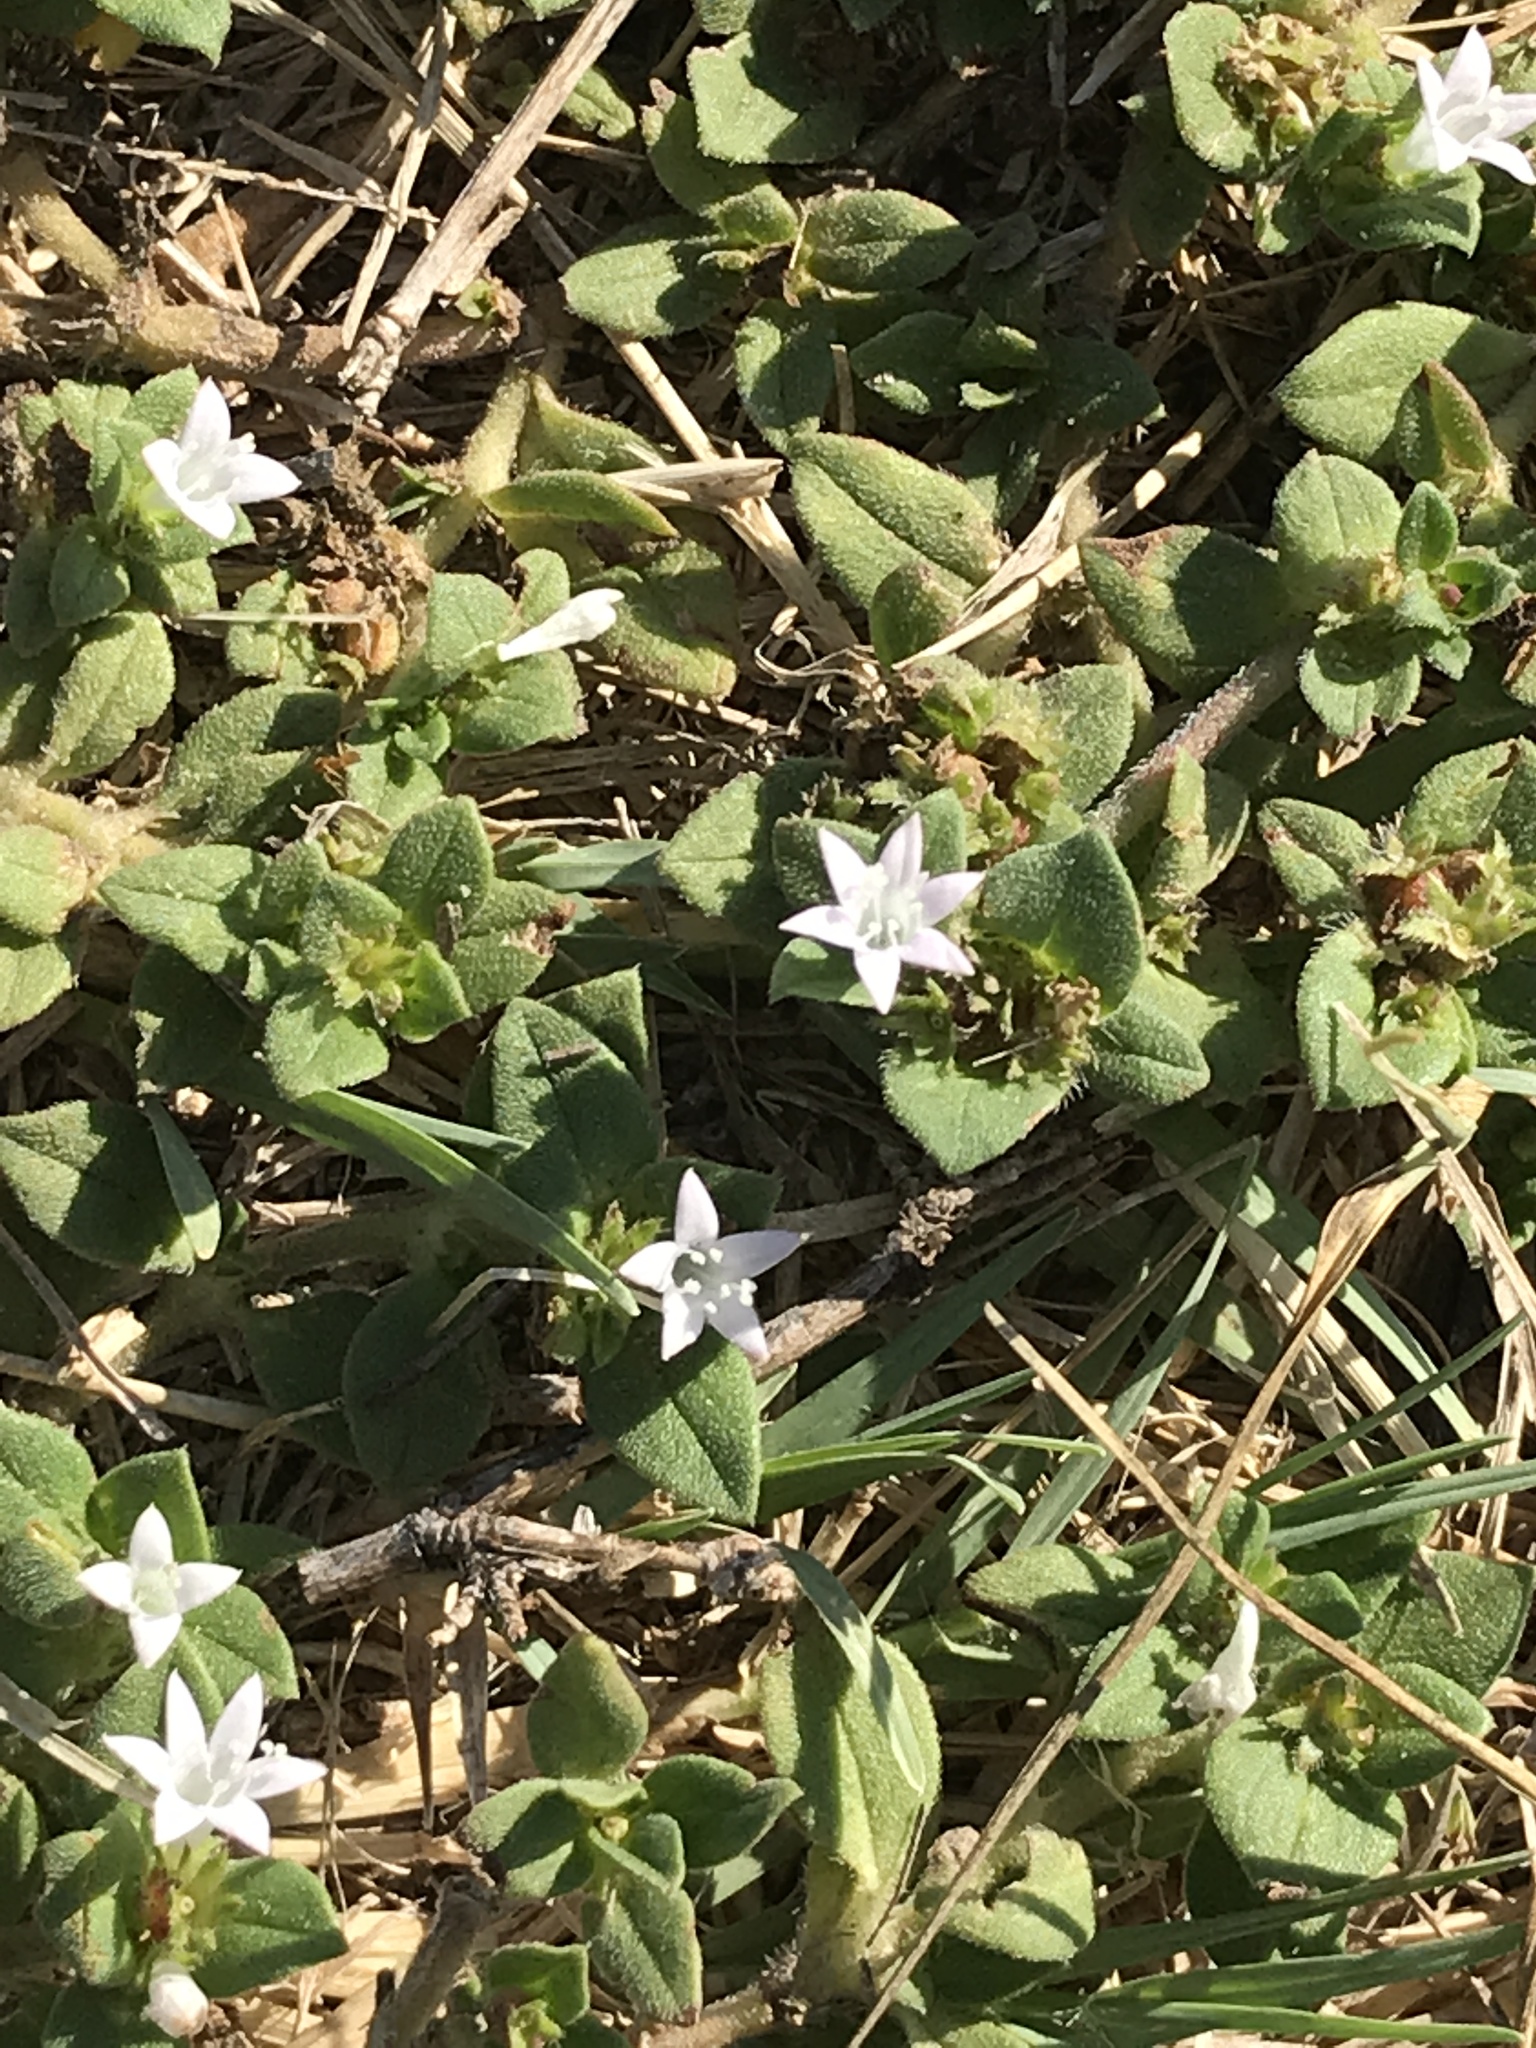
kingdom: Plantae
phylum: Tracheophyta
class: Magnoliopsida
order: Gentianales
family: Rubiaceae
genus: Richardia
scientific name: Richardia brasiliensis
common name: Tropical mexican clover
